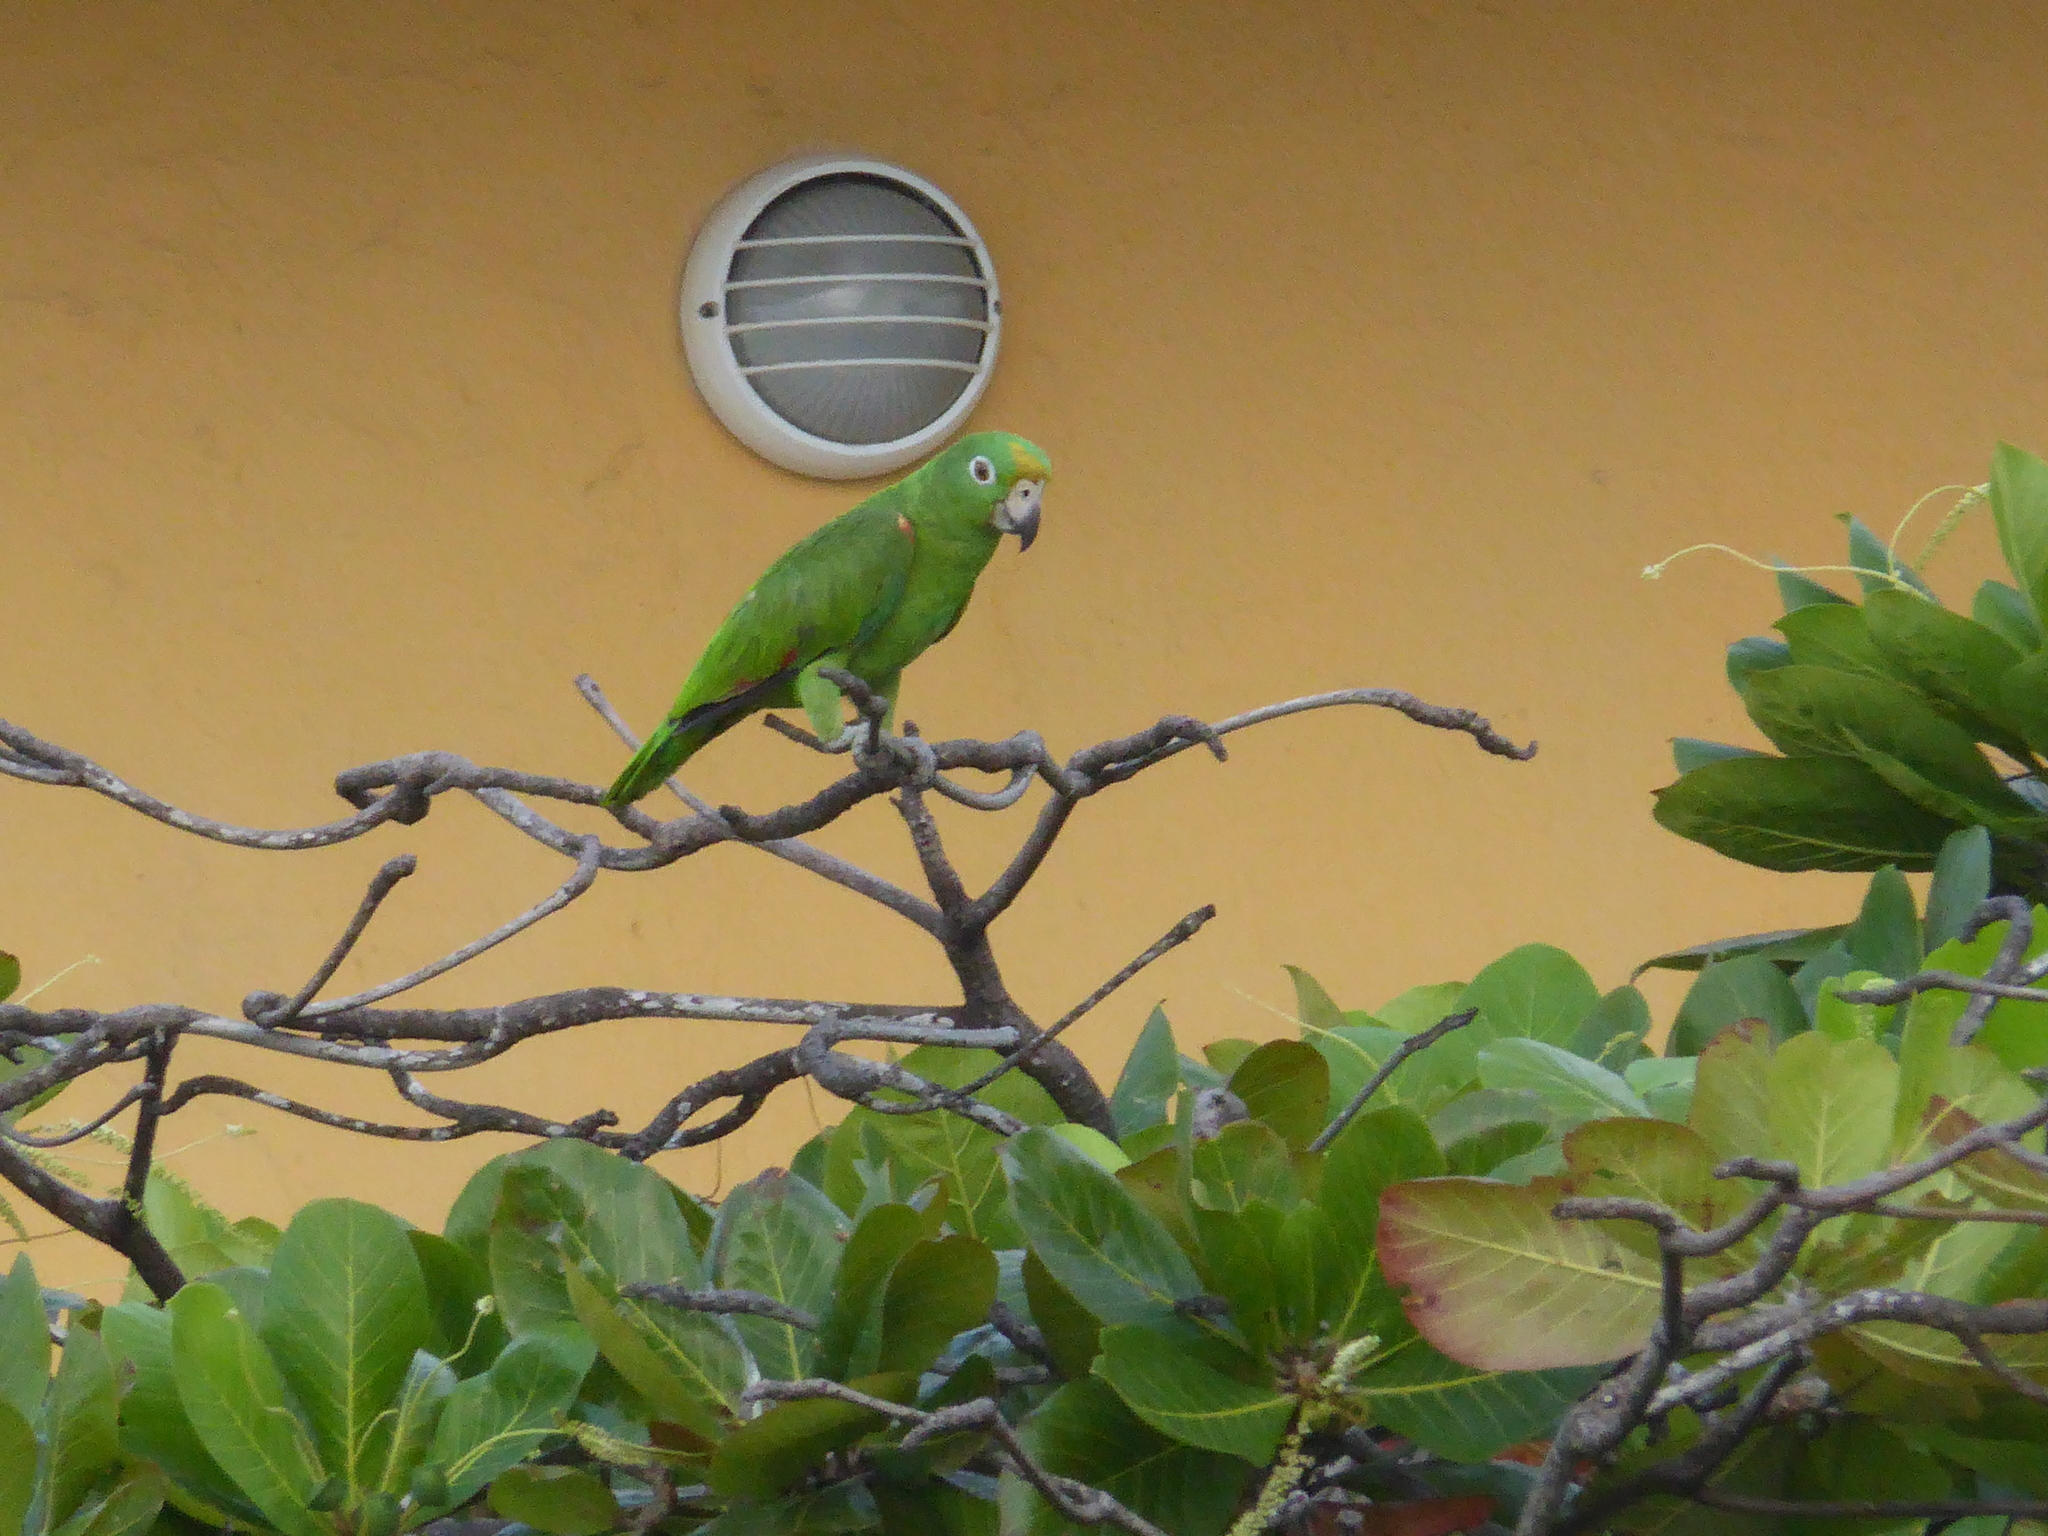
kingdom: Animalia
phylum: Chordata
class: Aves
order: Psittaciformes
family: Psittacidae
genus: Amazona
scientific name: Amazona ochrocephala
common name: Yellow-crowned amazon
